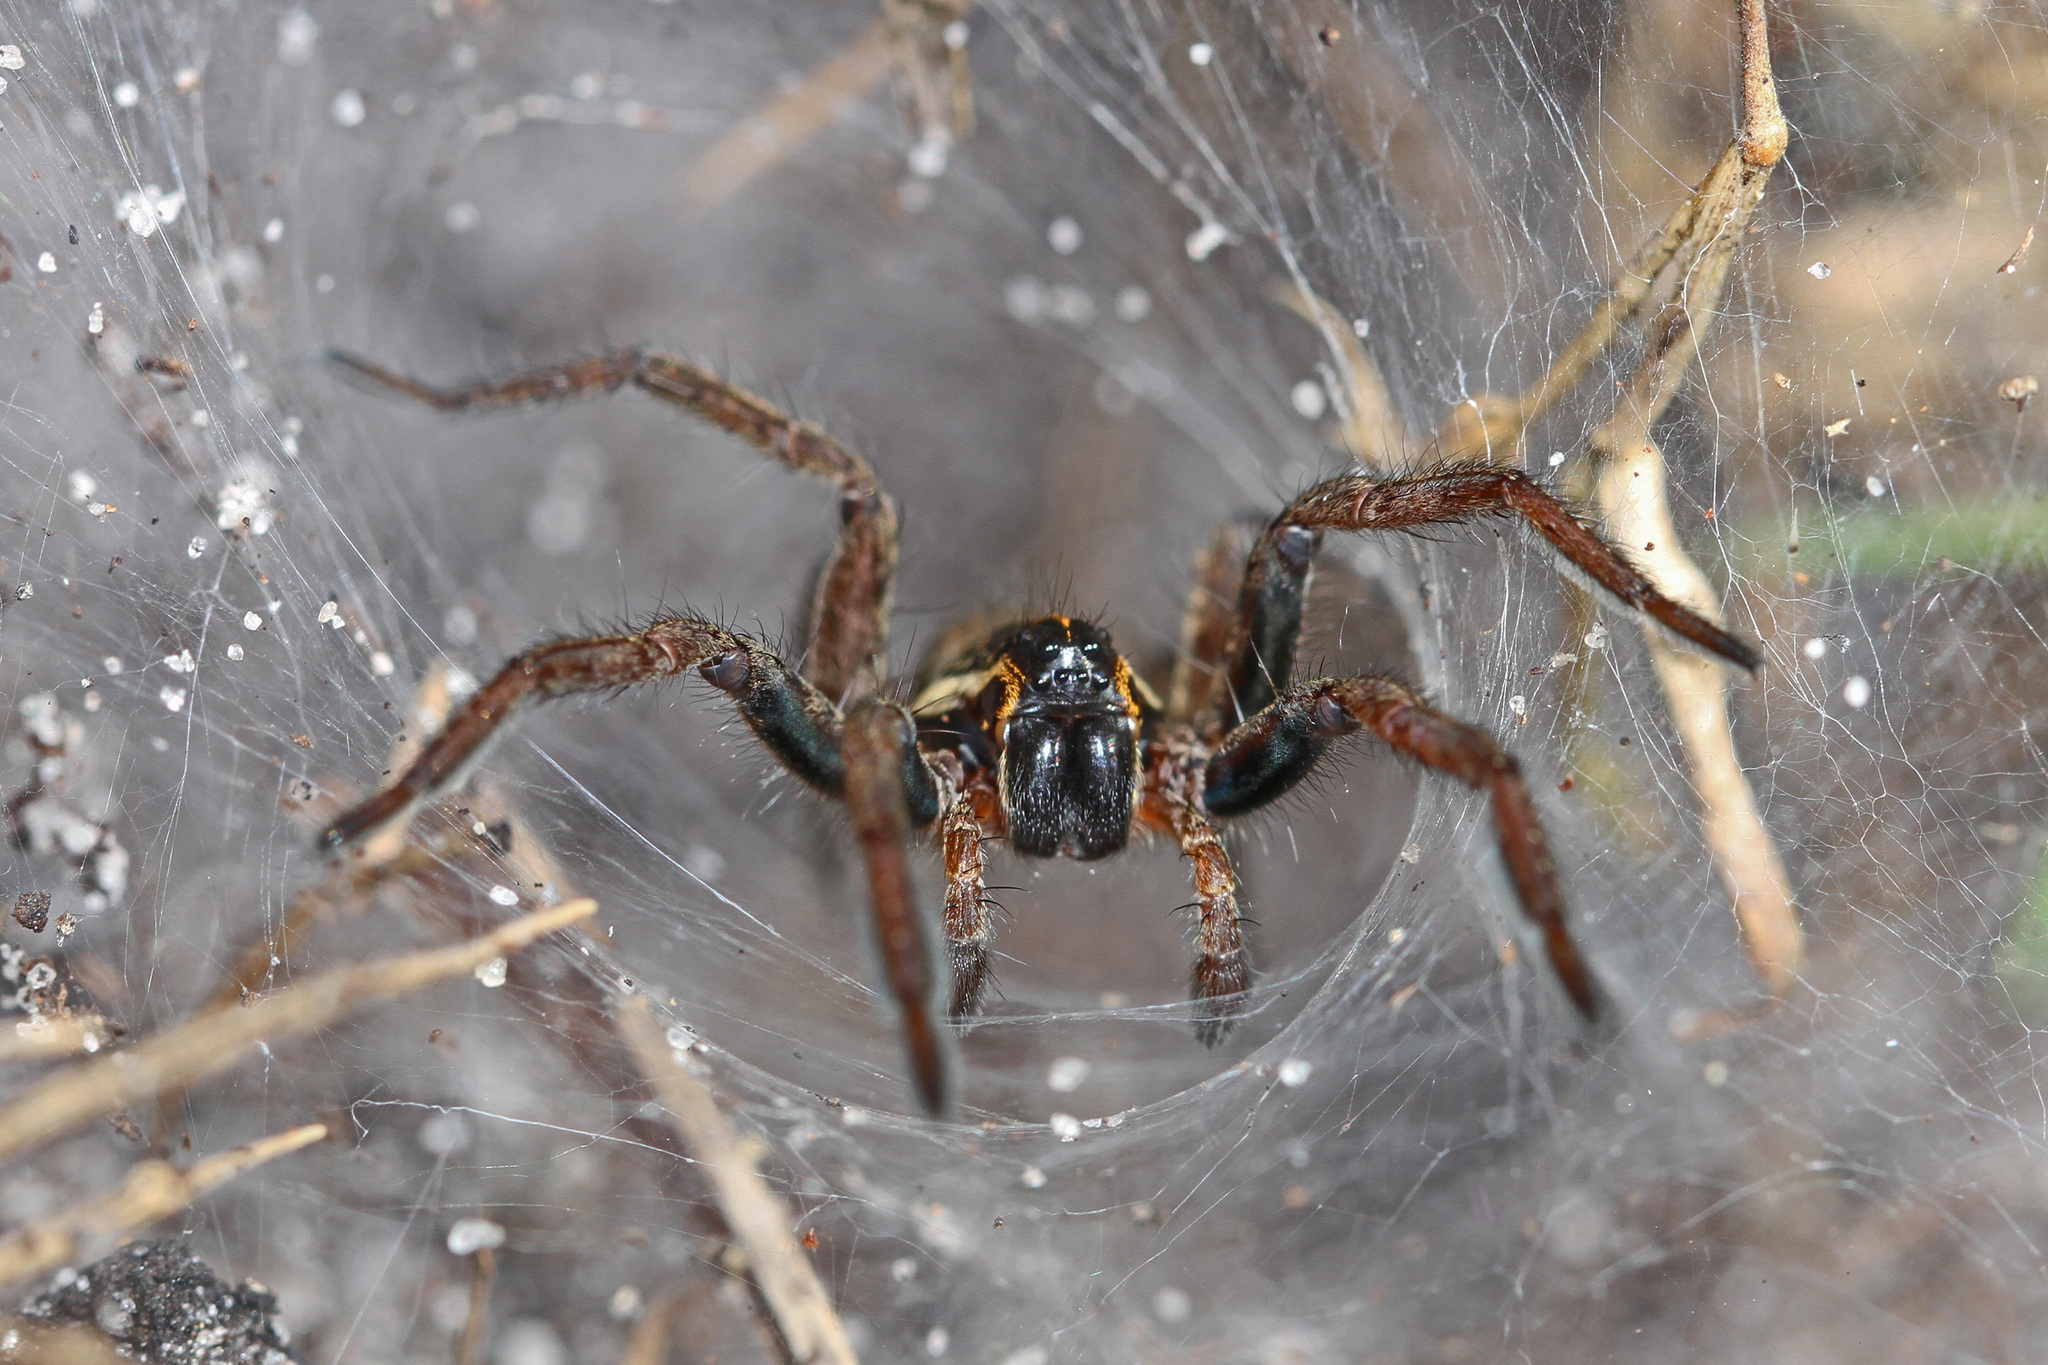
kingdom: Animalia
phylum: Arthropoda
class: Arachnida
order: Araneae
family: Lycosidae
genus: Sosippus
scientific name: Sosippus floridanus
